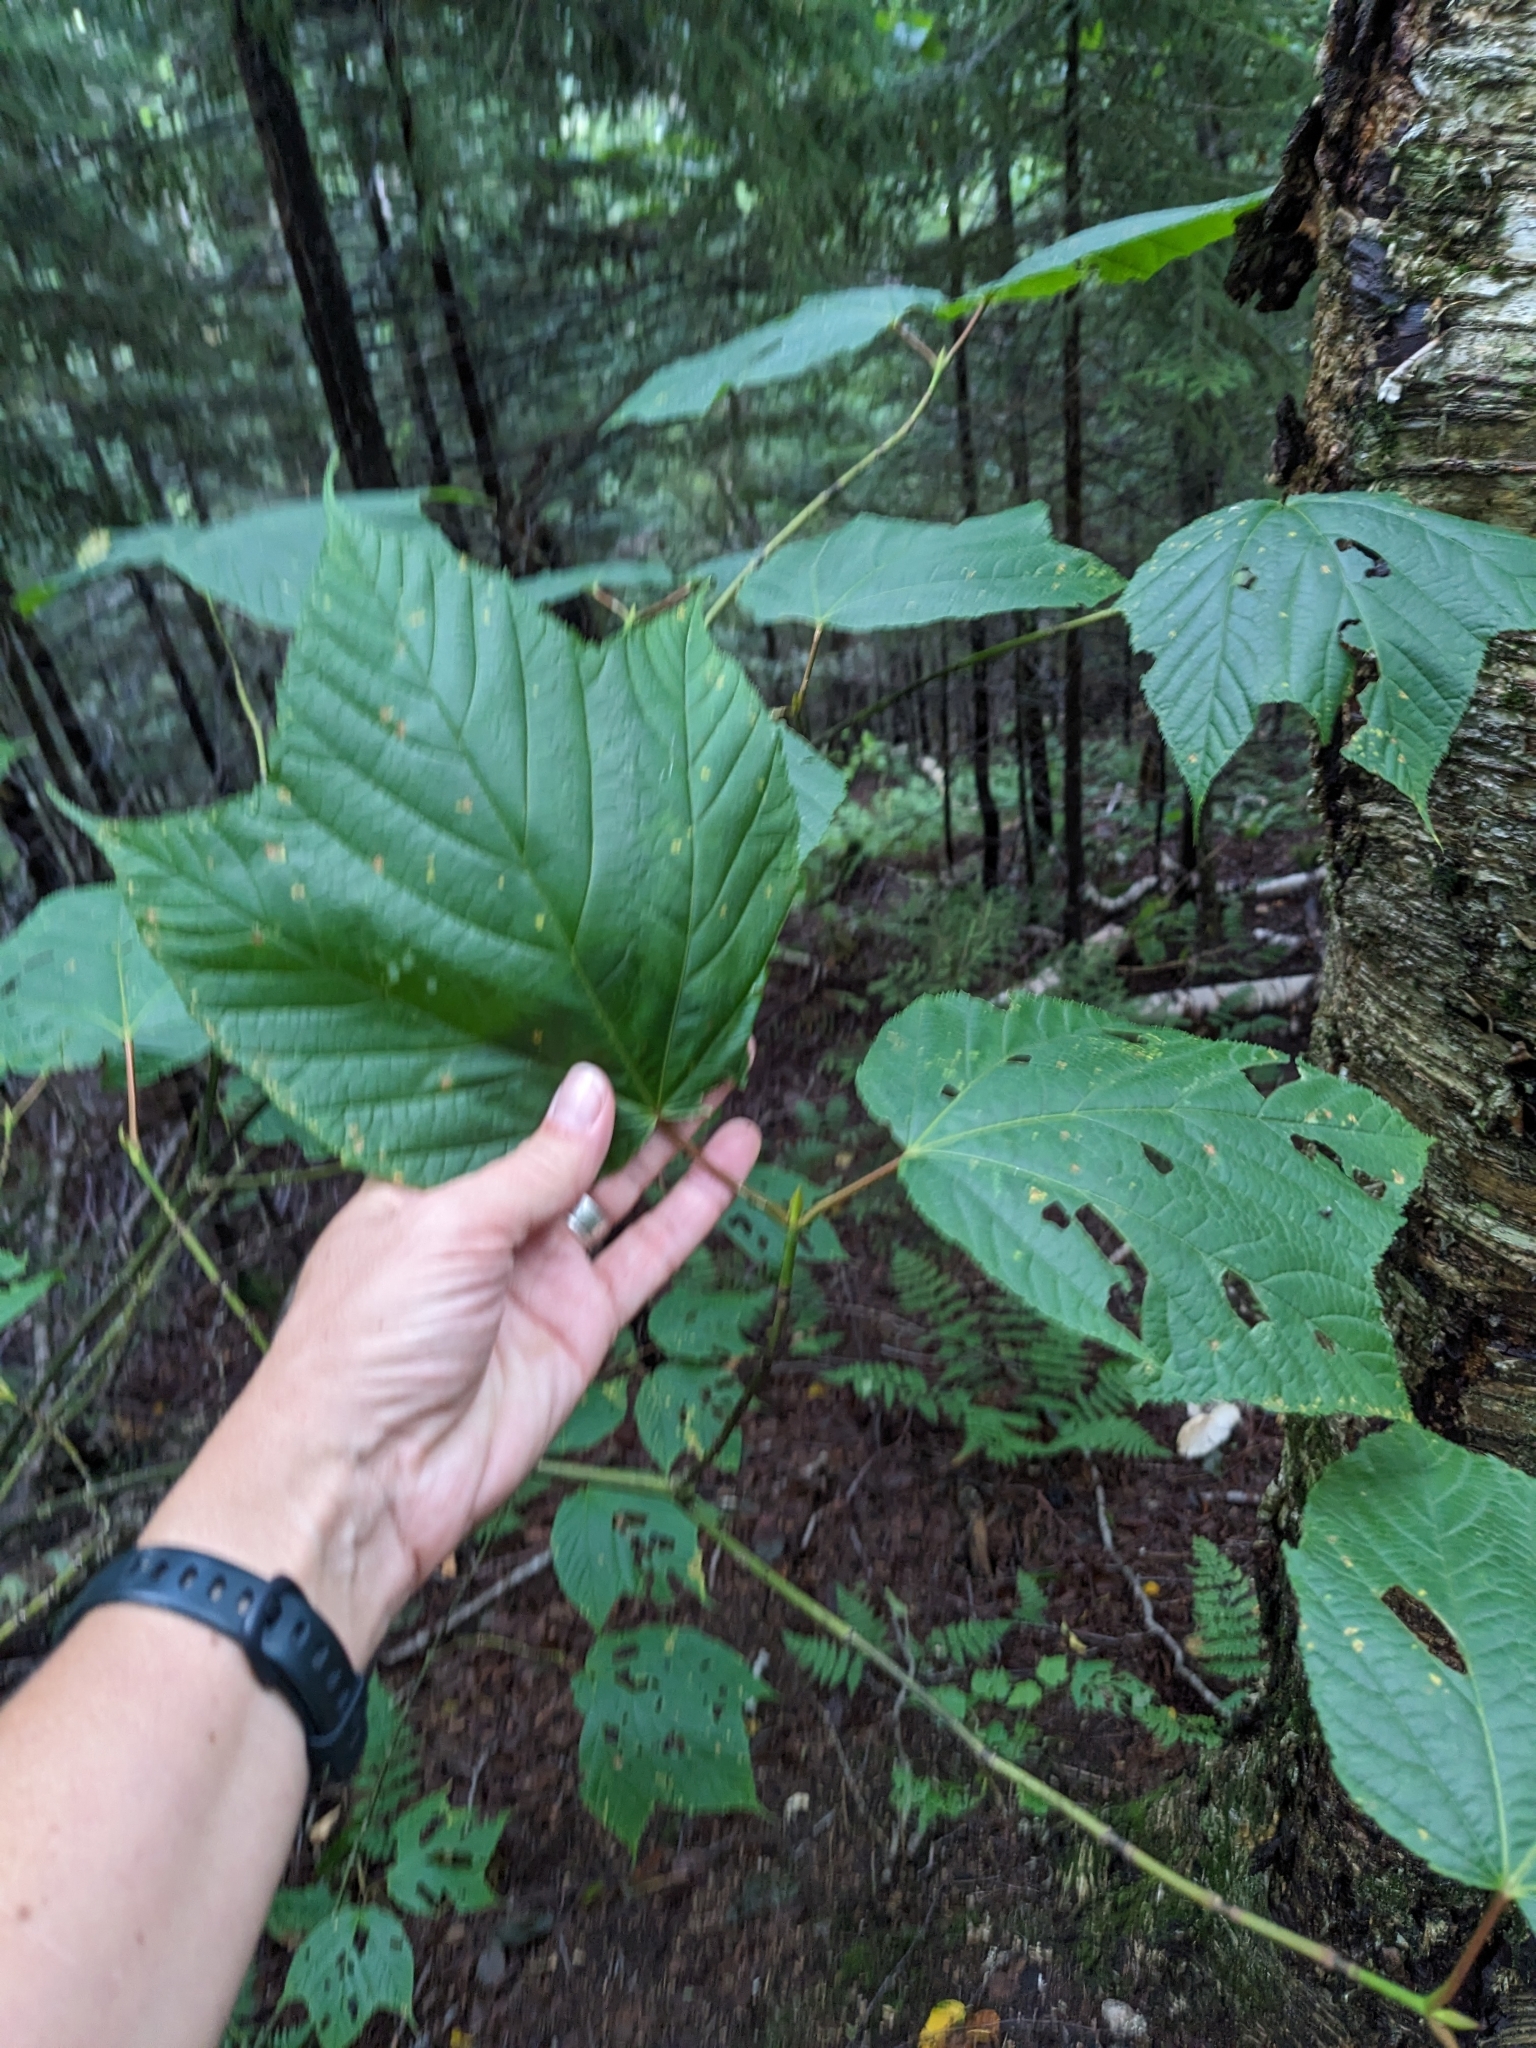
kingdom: Plantae
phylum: Tracheophyta
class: Magnoliopsida
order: Sapindales
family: Sapindaceae
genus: Acer
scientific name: Acer pensylvanicum
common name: Moosewood
